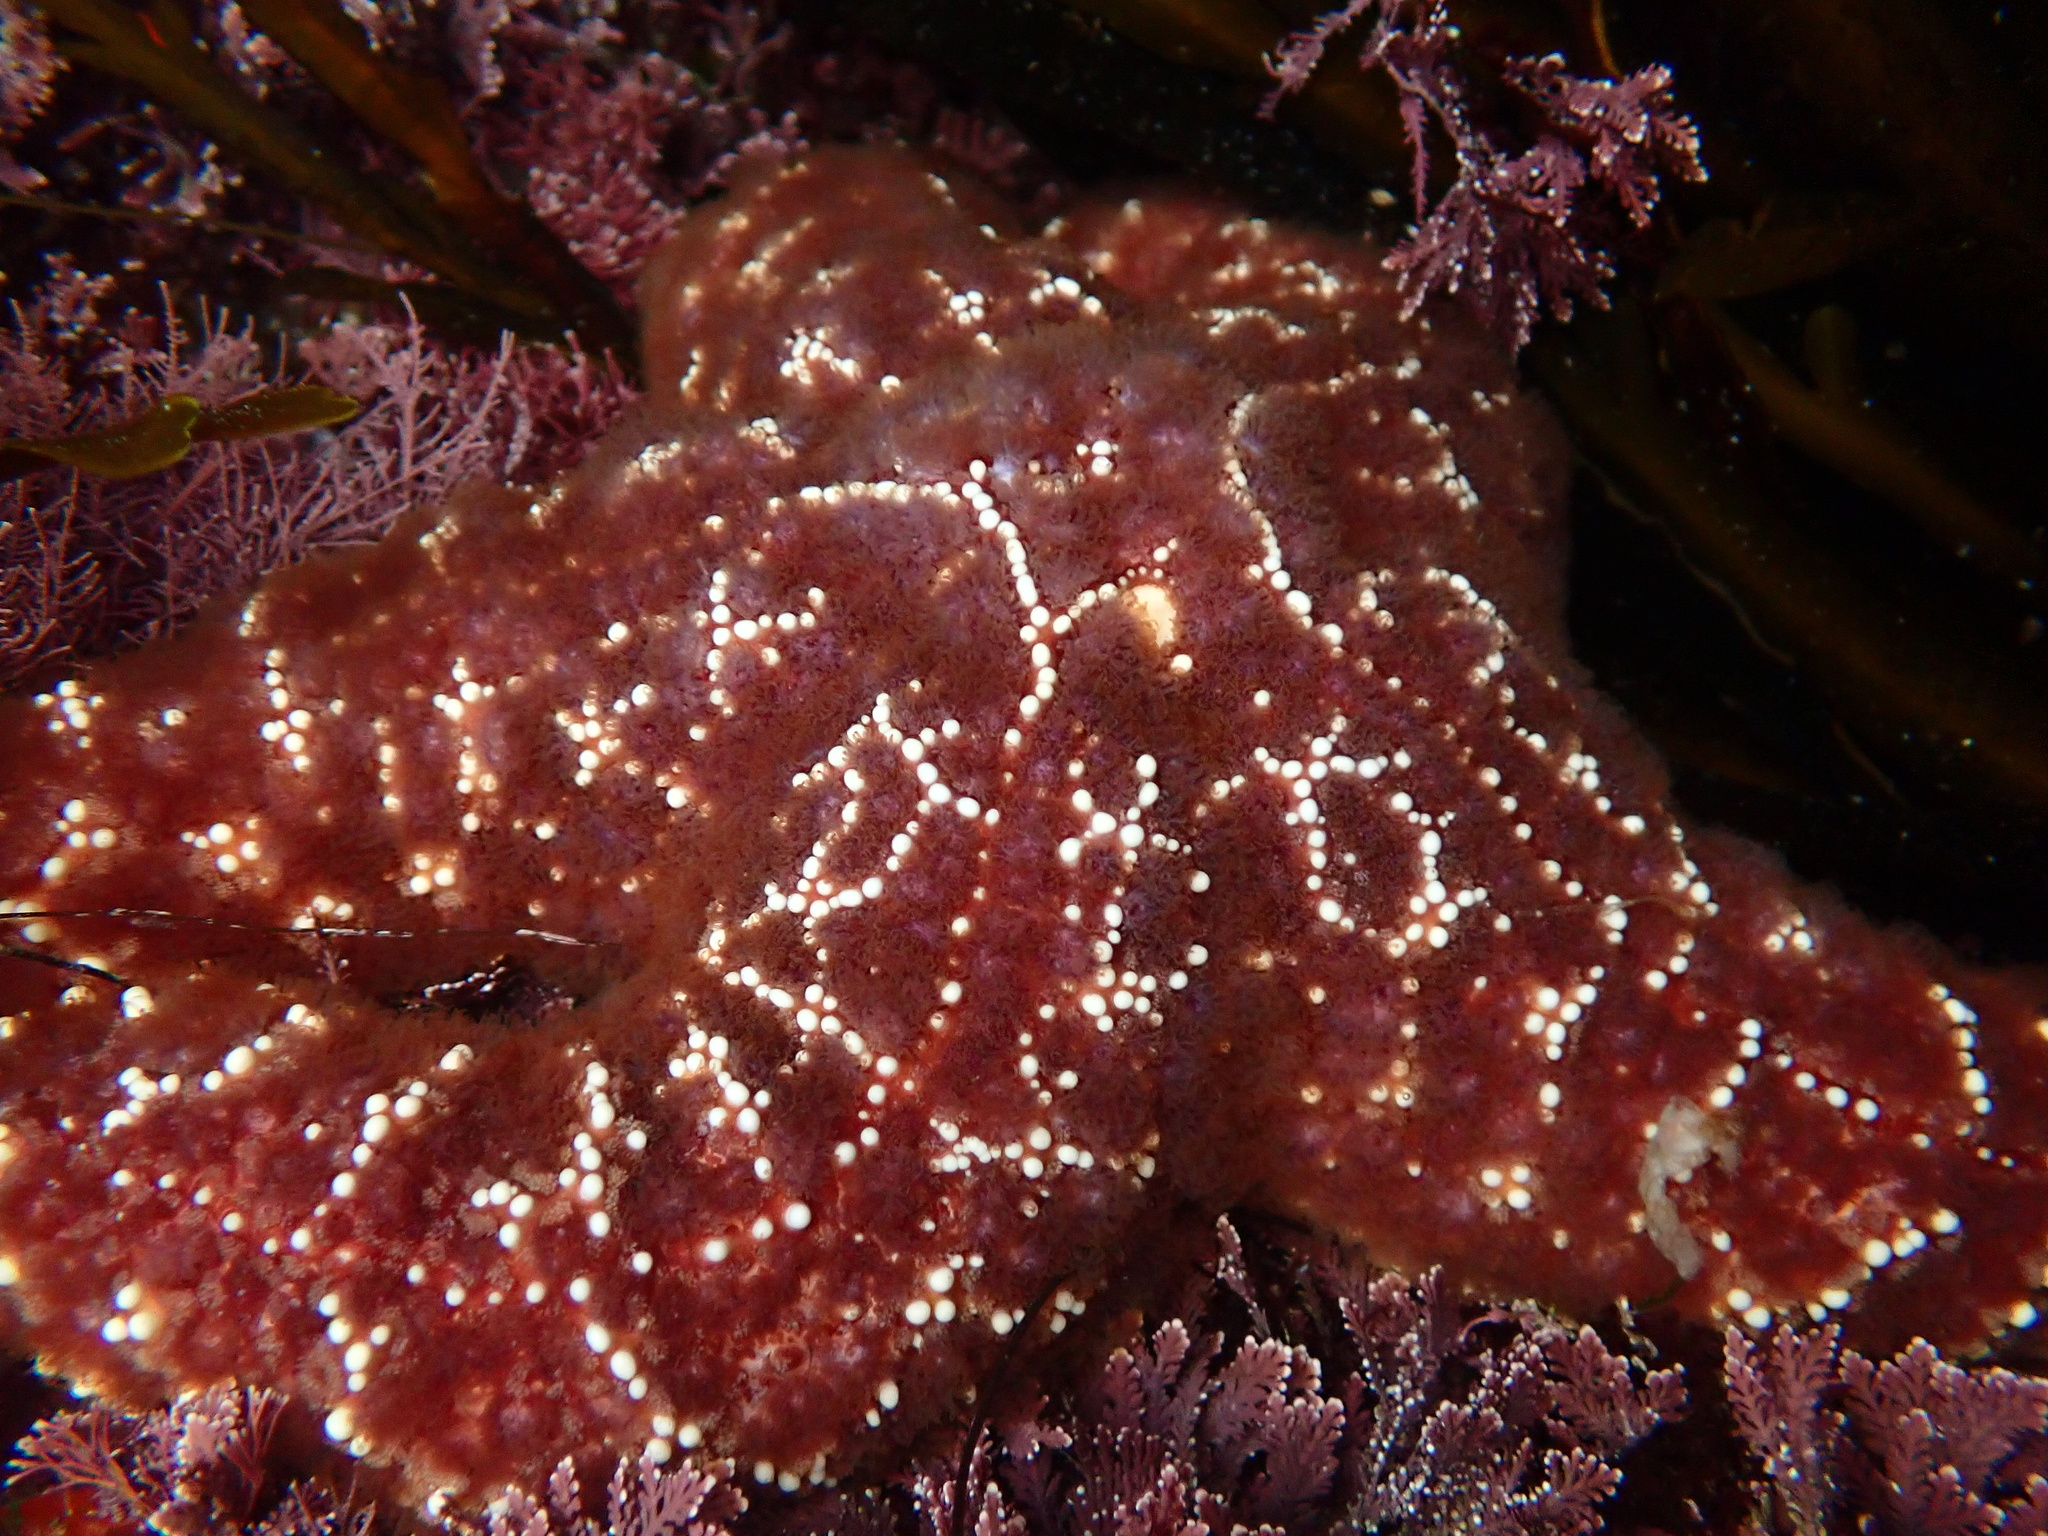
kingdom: Animalia
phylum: Echinodermata
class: Asteroidea
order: Forcipulatida
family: Asteriidae
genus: Pisaster
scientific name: Pisaster ochraceus
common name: Ochre stars
